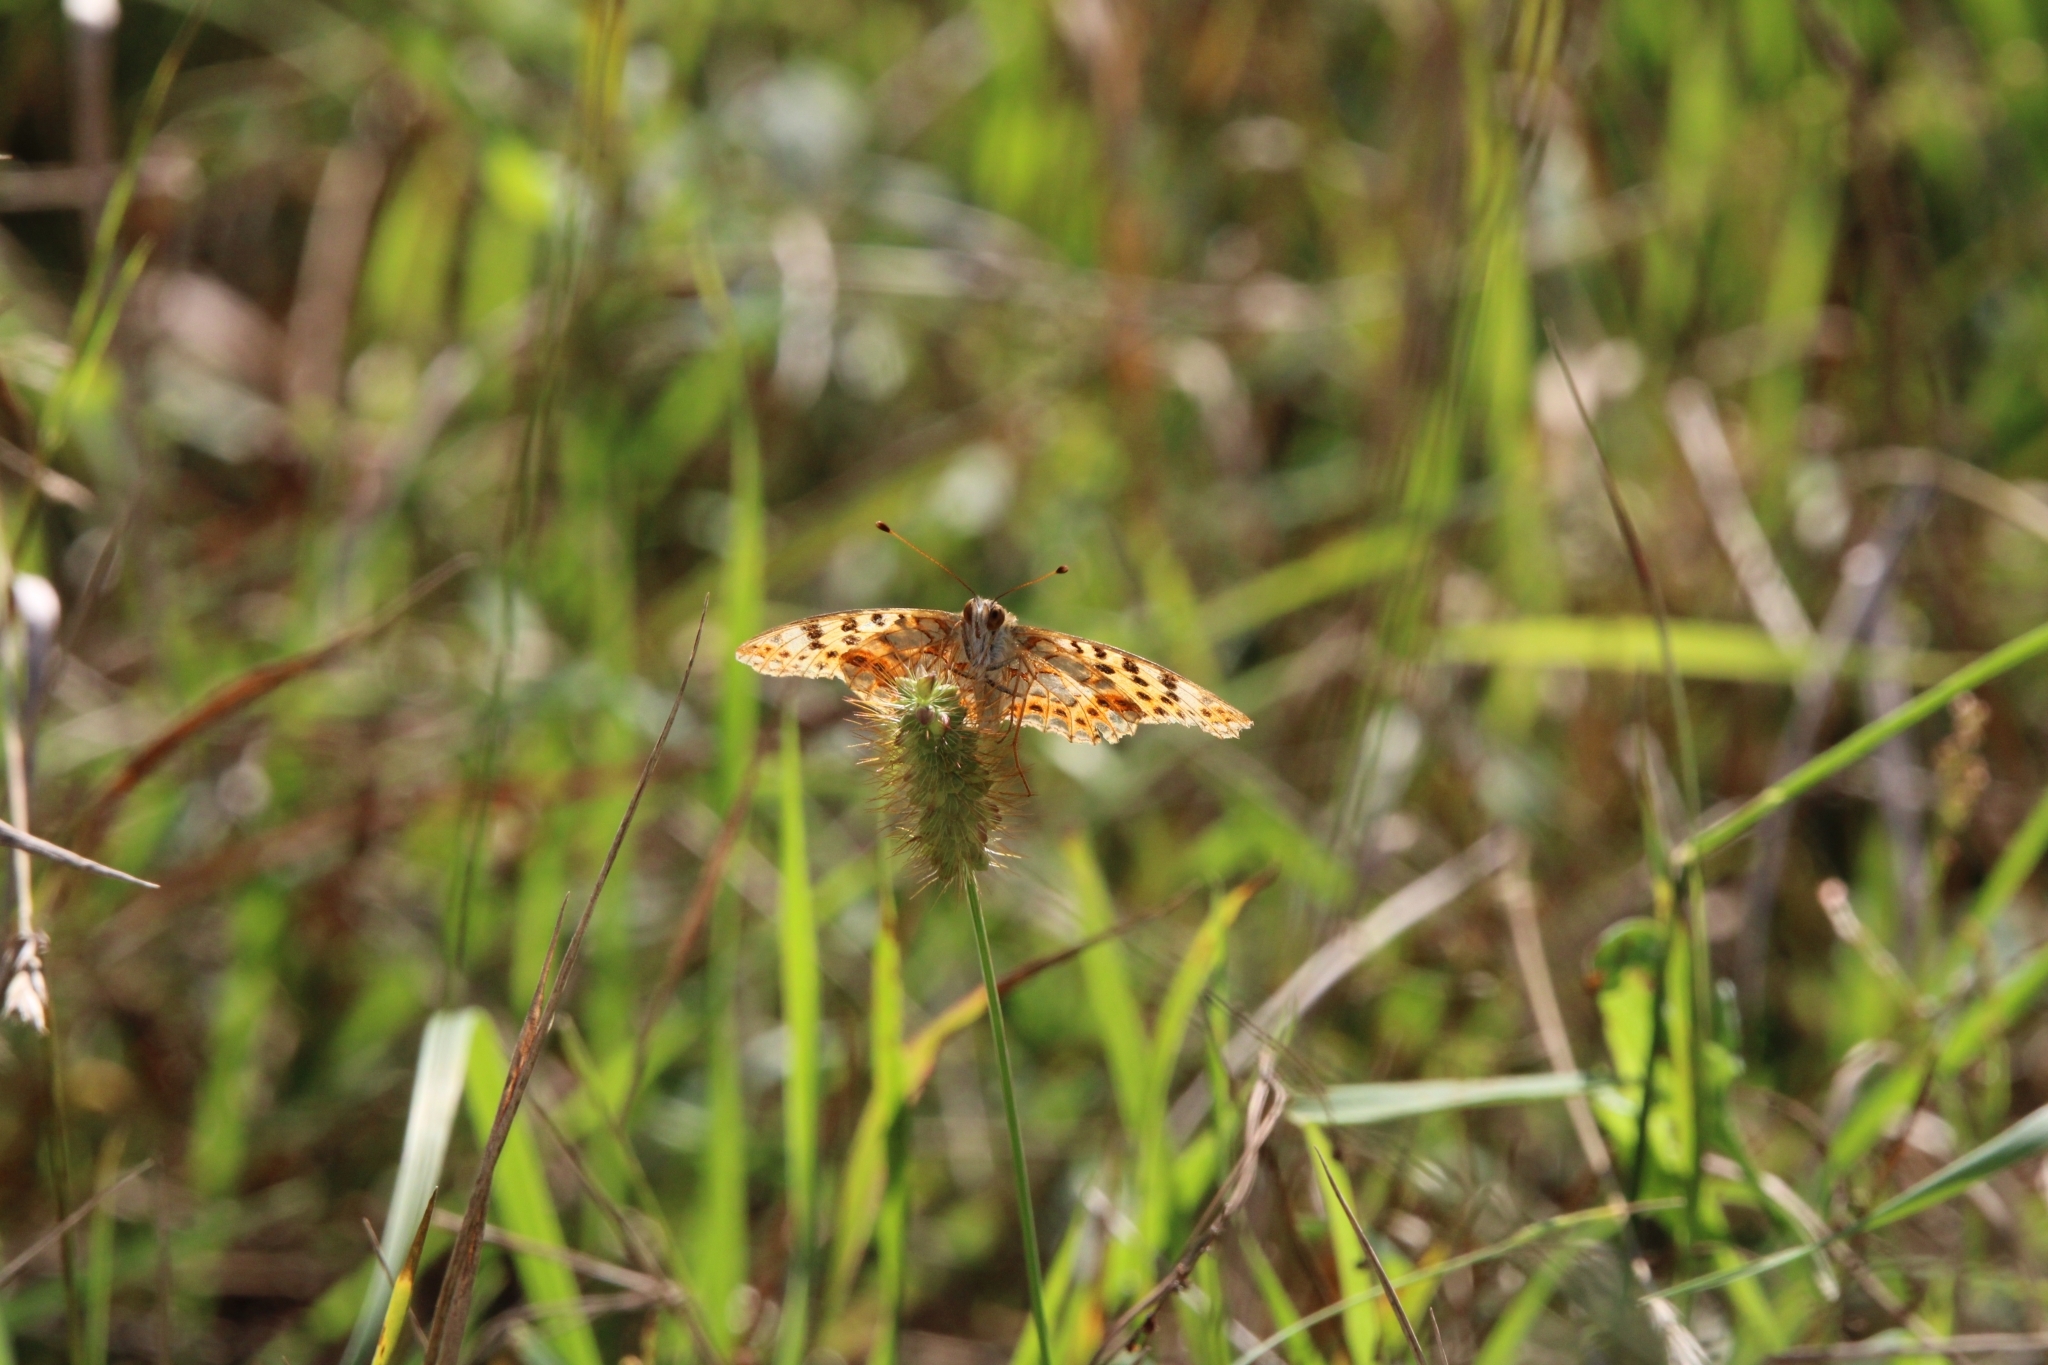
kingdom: Animalia
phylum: Arthropoda
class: Insecta
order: Lepidoptera
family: Nymphalidae
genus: Issoria
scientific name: Issoria lathonia
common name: Queen of spain fritillary
